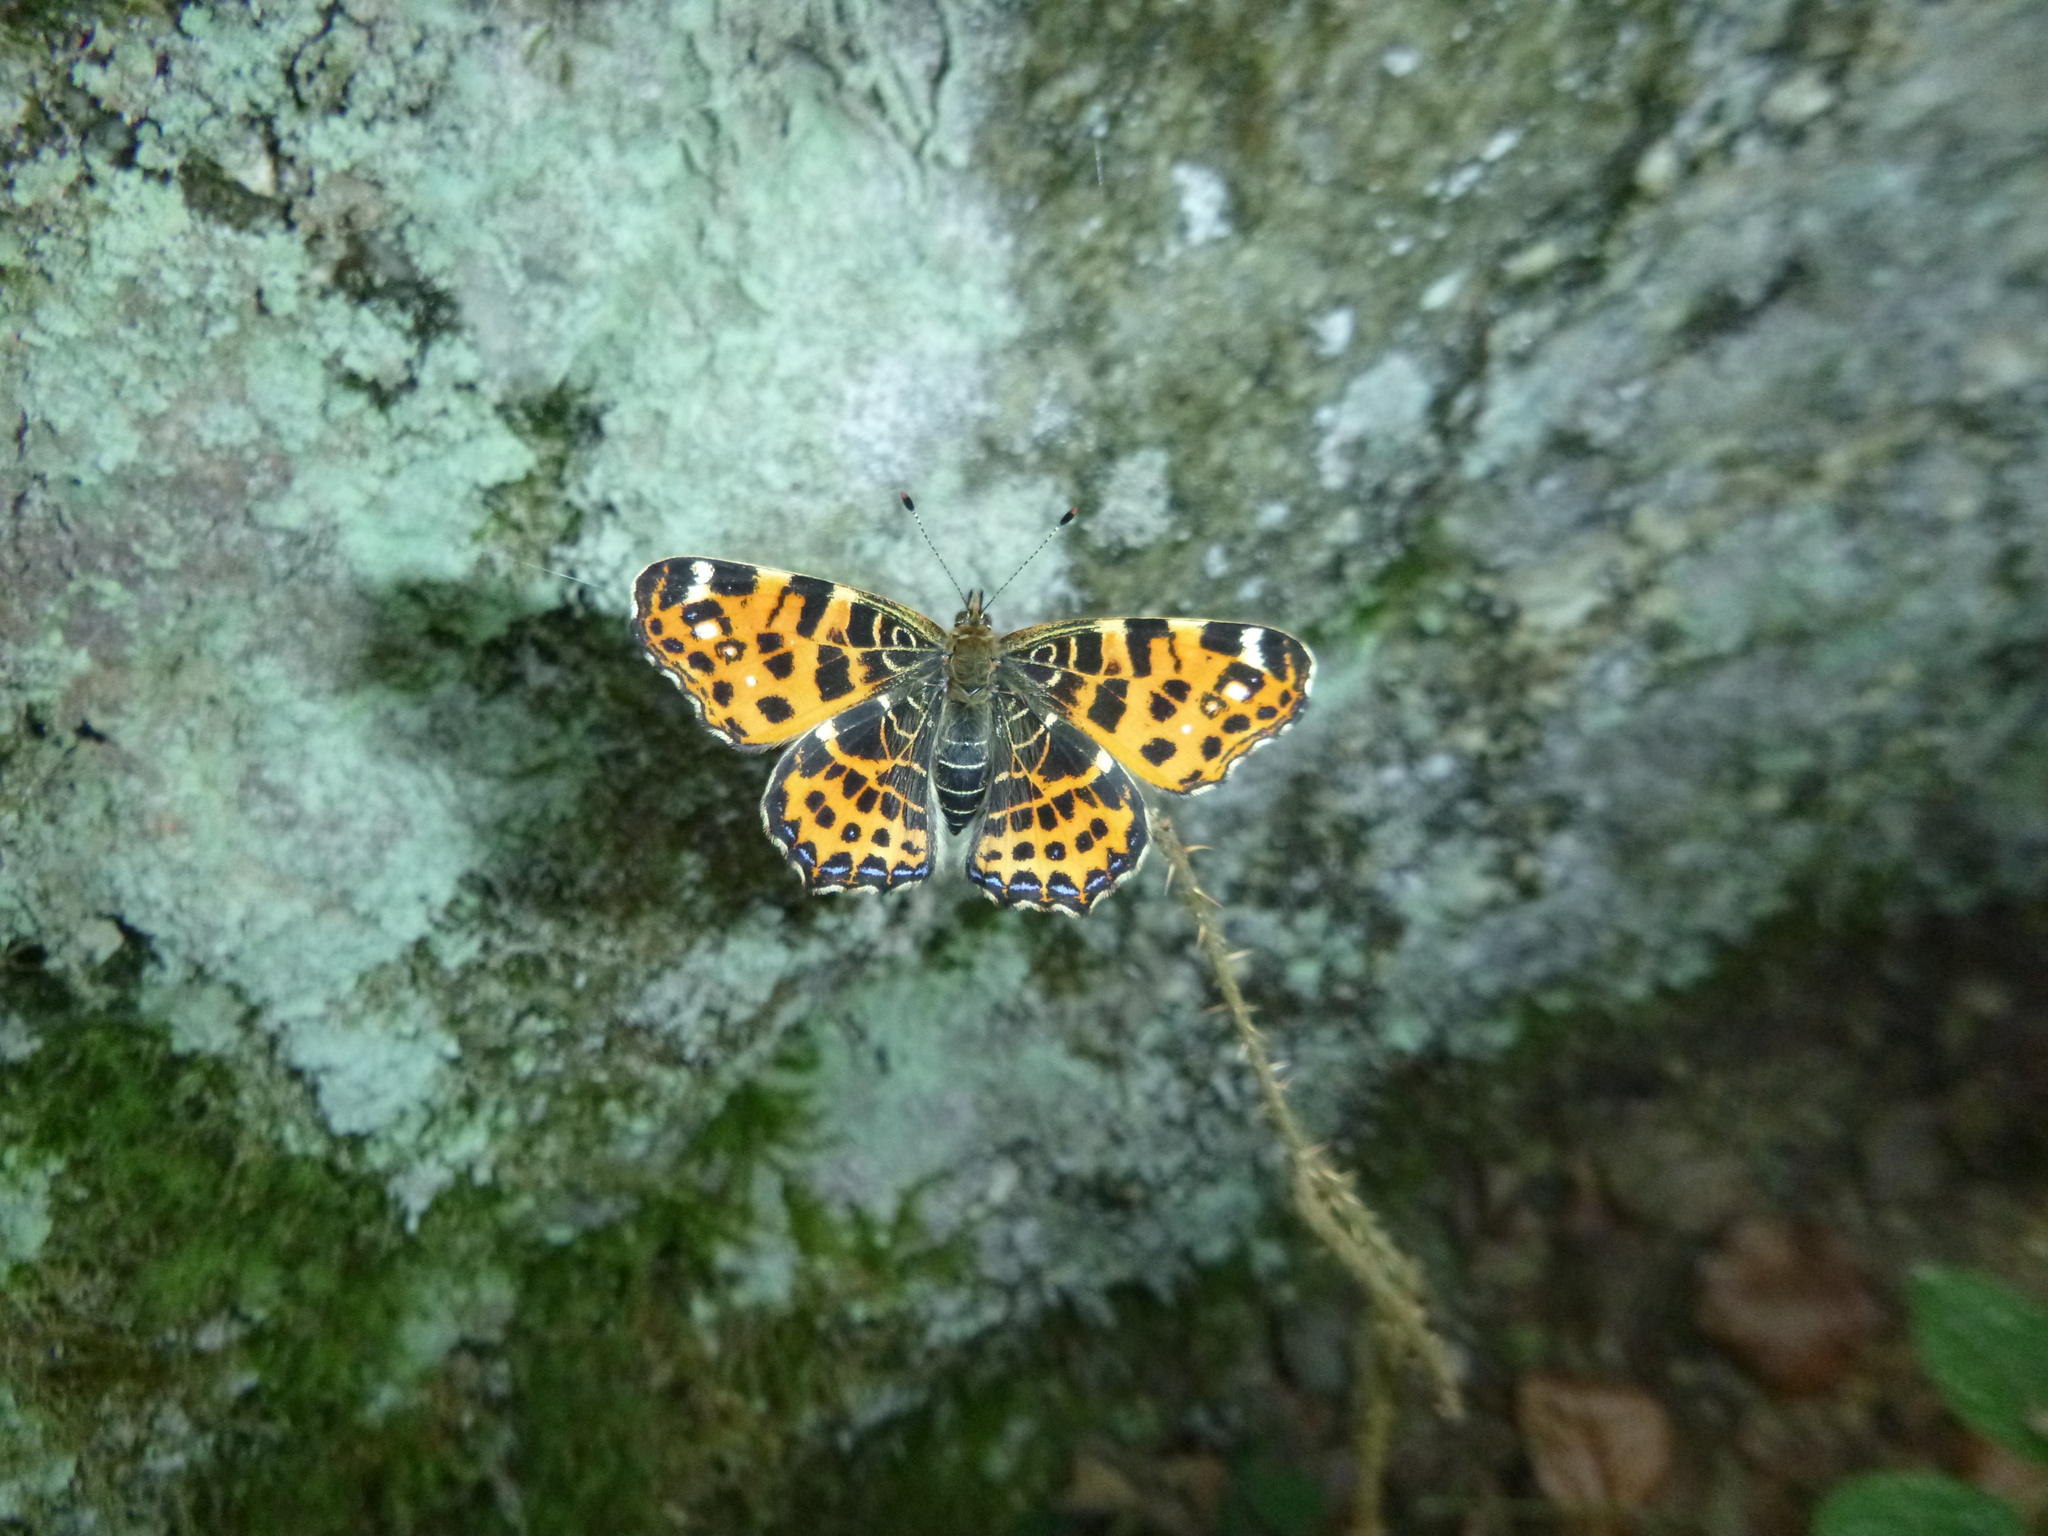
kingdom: Animalia
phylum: Arthropoda
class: Insecta
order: Lepidoptera
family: Nymphalidae
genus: Araschnia
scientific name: Araschnia levana
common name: Map butterfly
